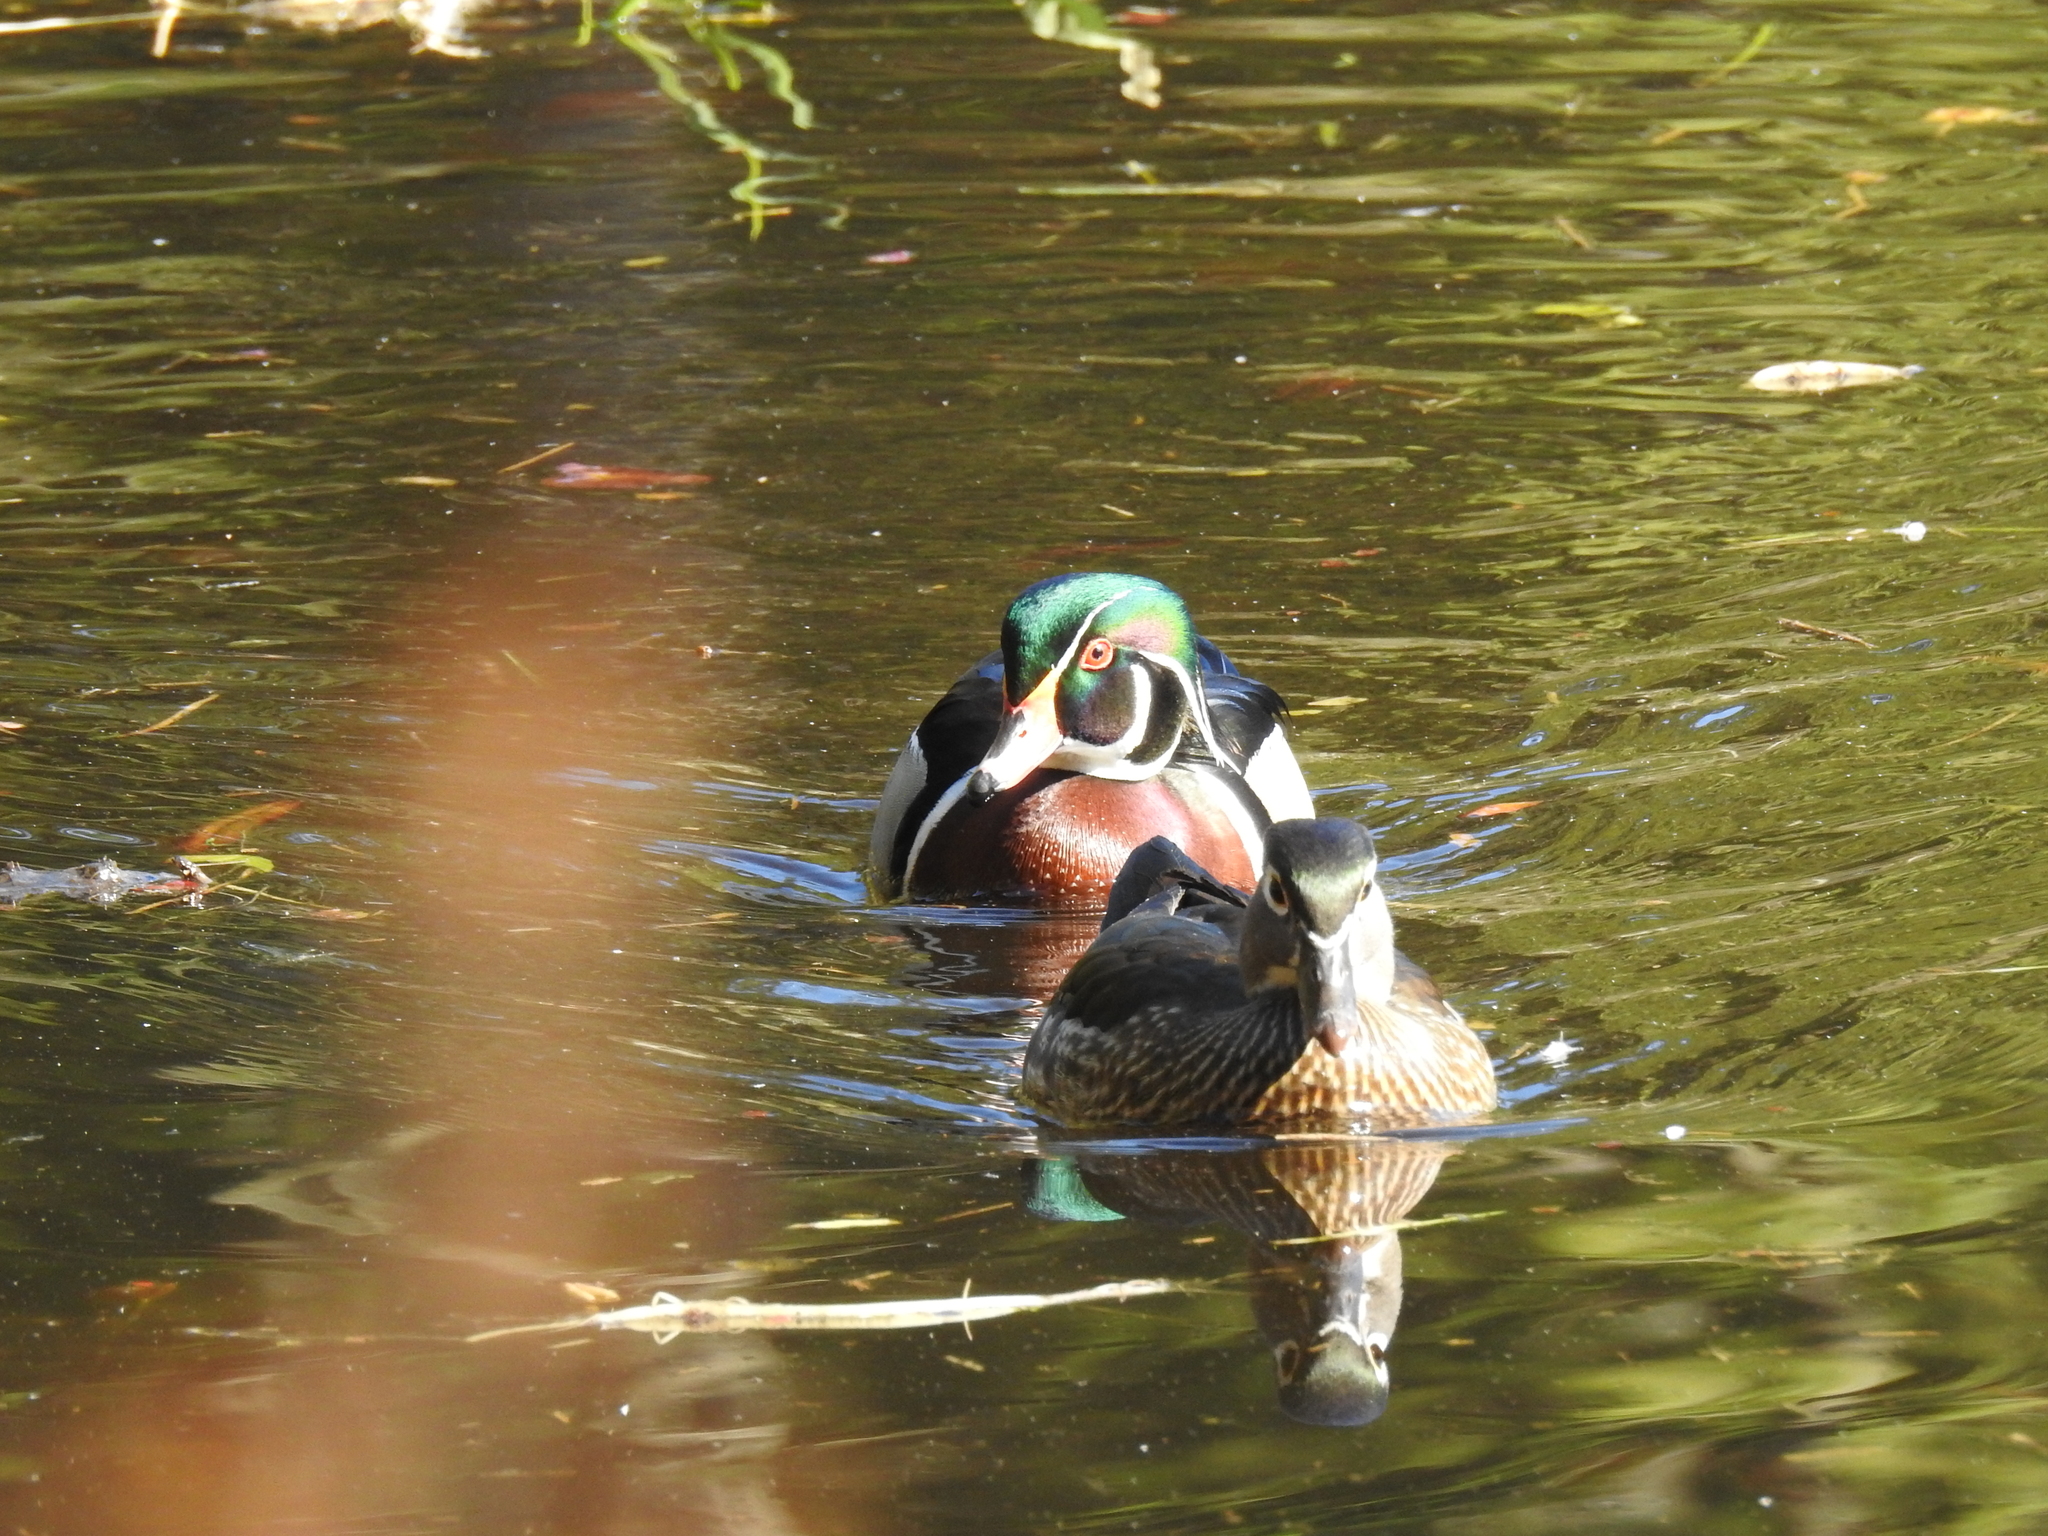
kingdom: Animalia
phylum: Chordata
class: Aves
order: Anseriformes
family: Anatidae
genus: Aix
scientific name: Aix sponsa
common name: Wood duck
